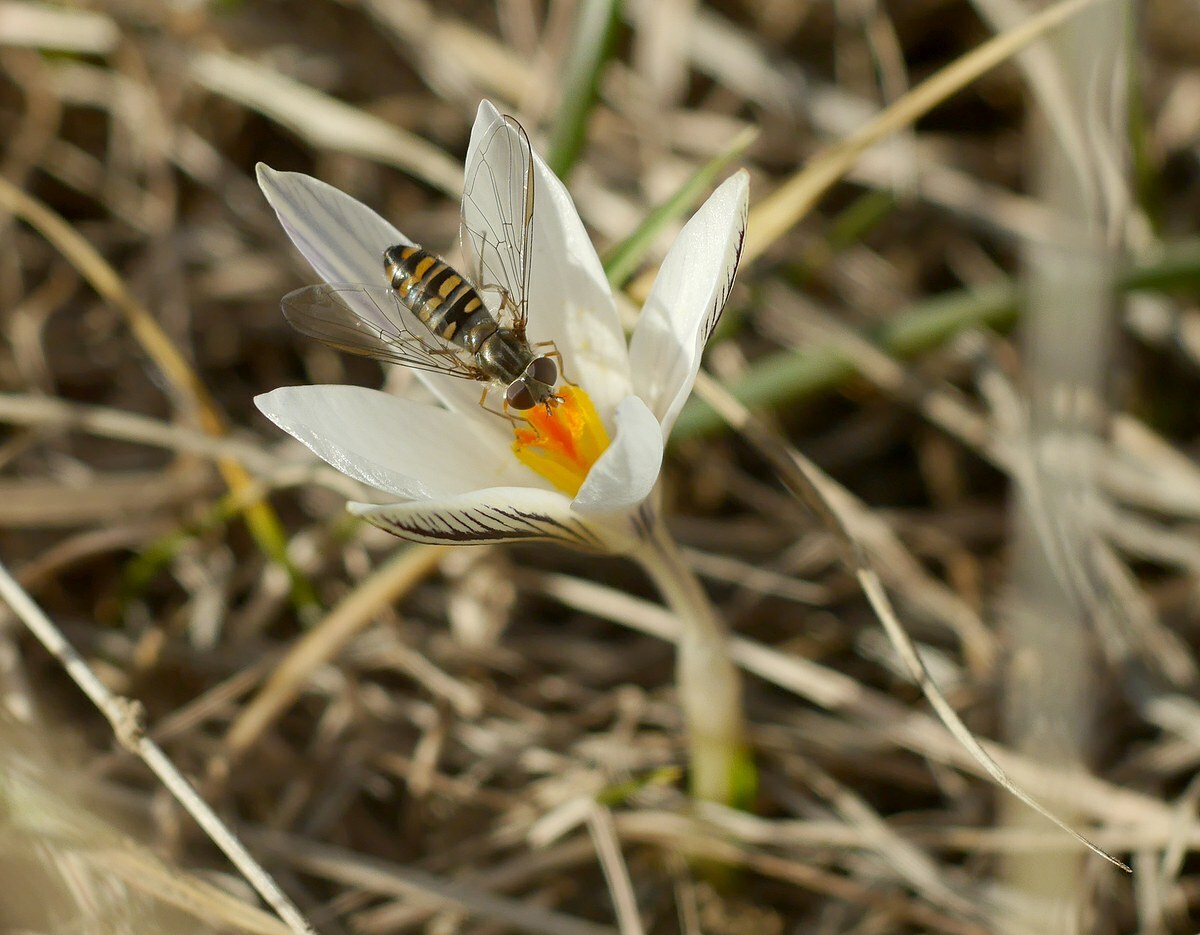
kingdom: Animalia
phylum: Arthropoda
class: Insecta
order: Diptera
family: Syrphidae
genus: Episyrphus
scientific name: Episyrphus balteatus
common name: Marmalade hoverfly
